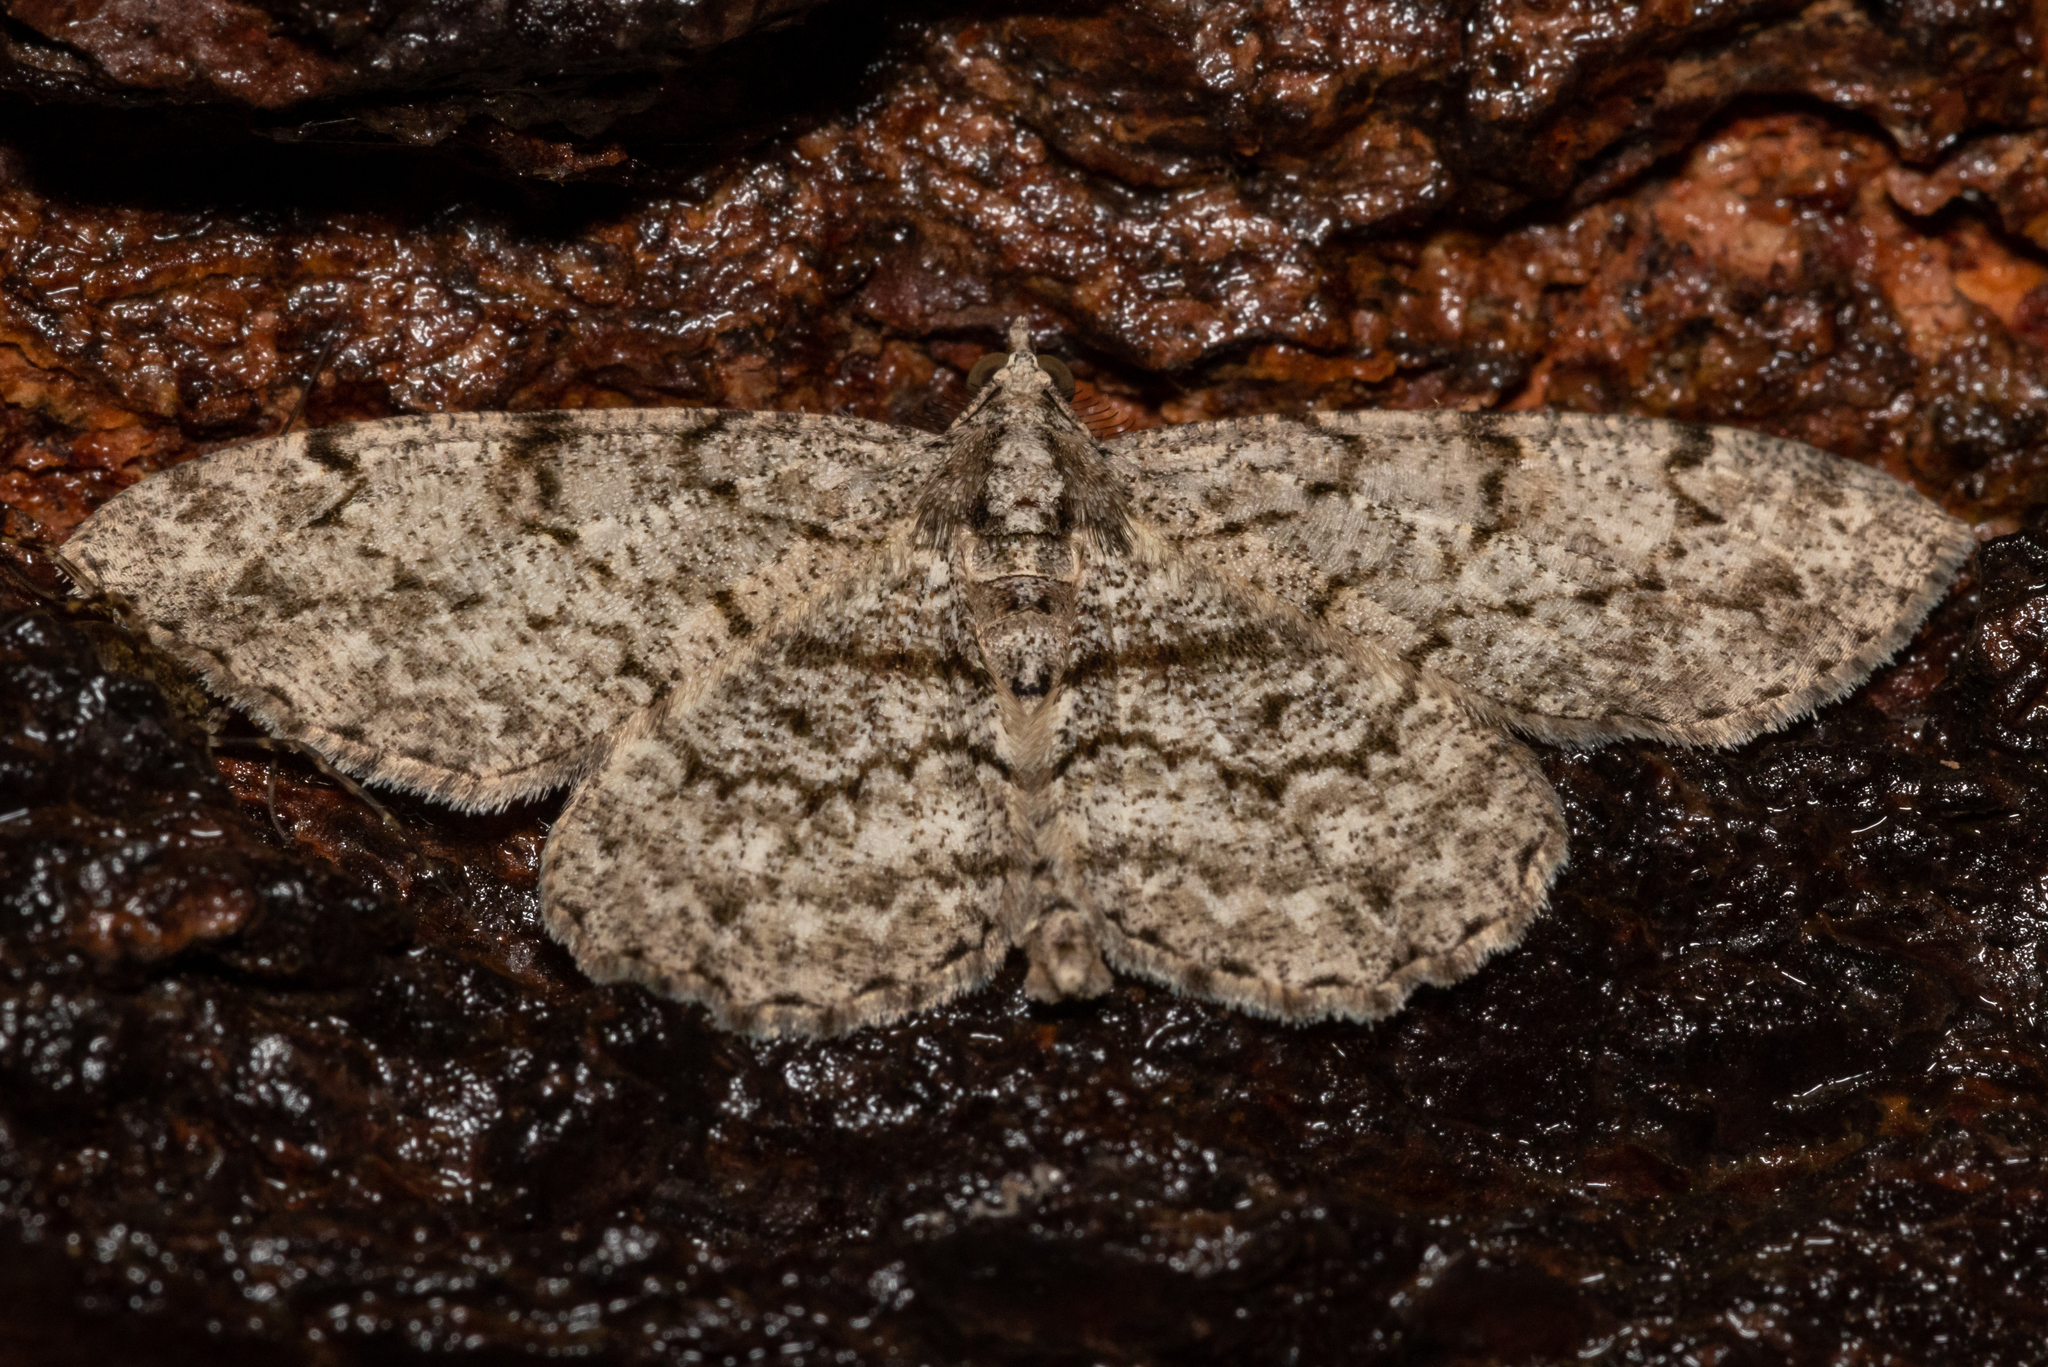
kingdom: Animalia
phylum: Arthropoda
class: Insecta
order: Lepidoptera
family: Geometridae
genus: Protoboarmia
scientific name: Protoboarmia porcelaria
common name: Porcelain gray
